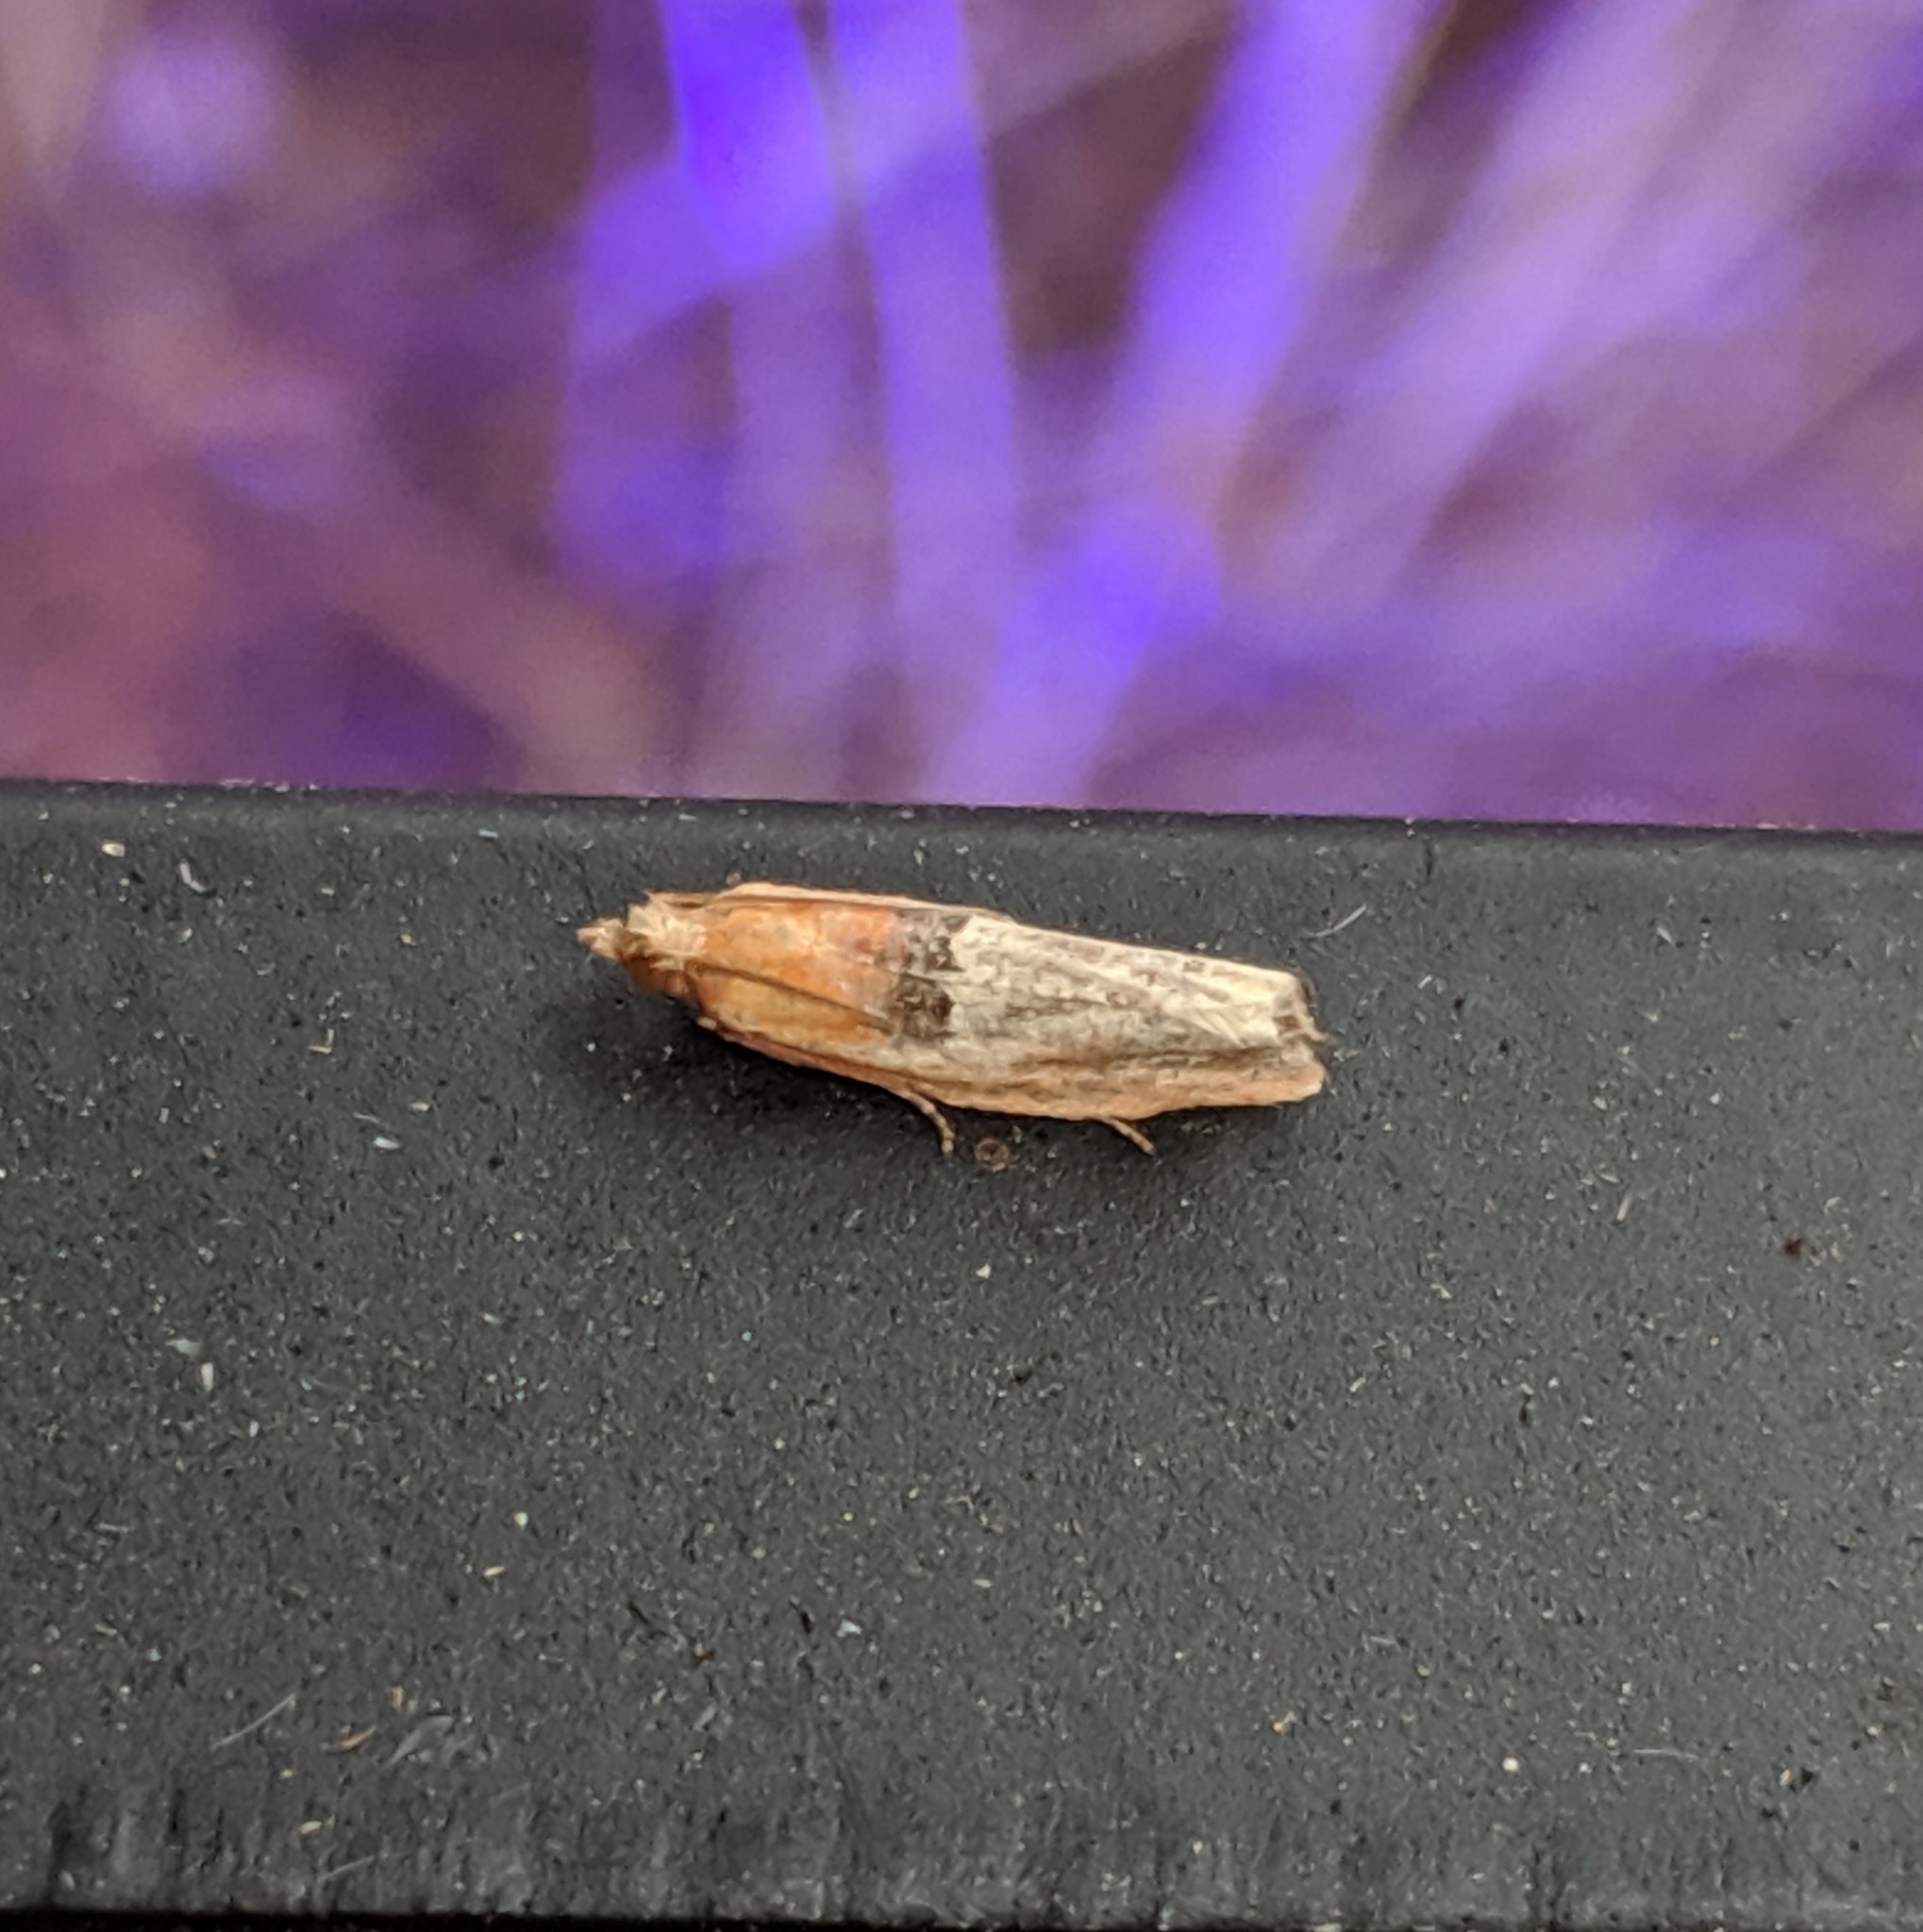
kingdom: Animalia
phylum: Arthropoda
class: Insecta
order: Lepidoptera
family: Tortricidae
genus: Epinotia
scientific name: Epinotia johnsonana
